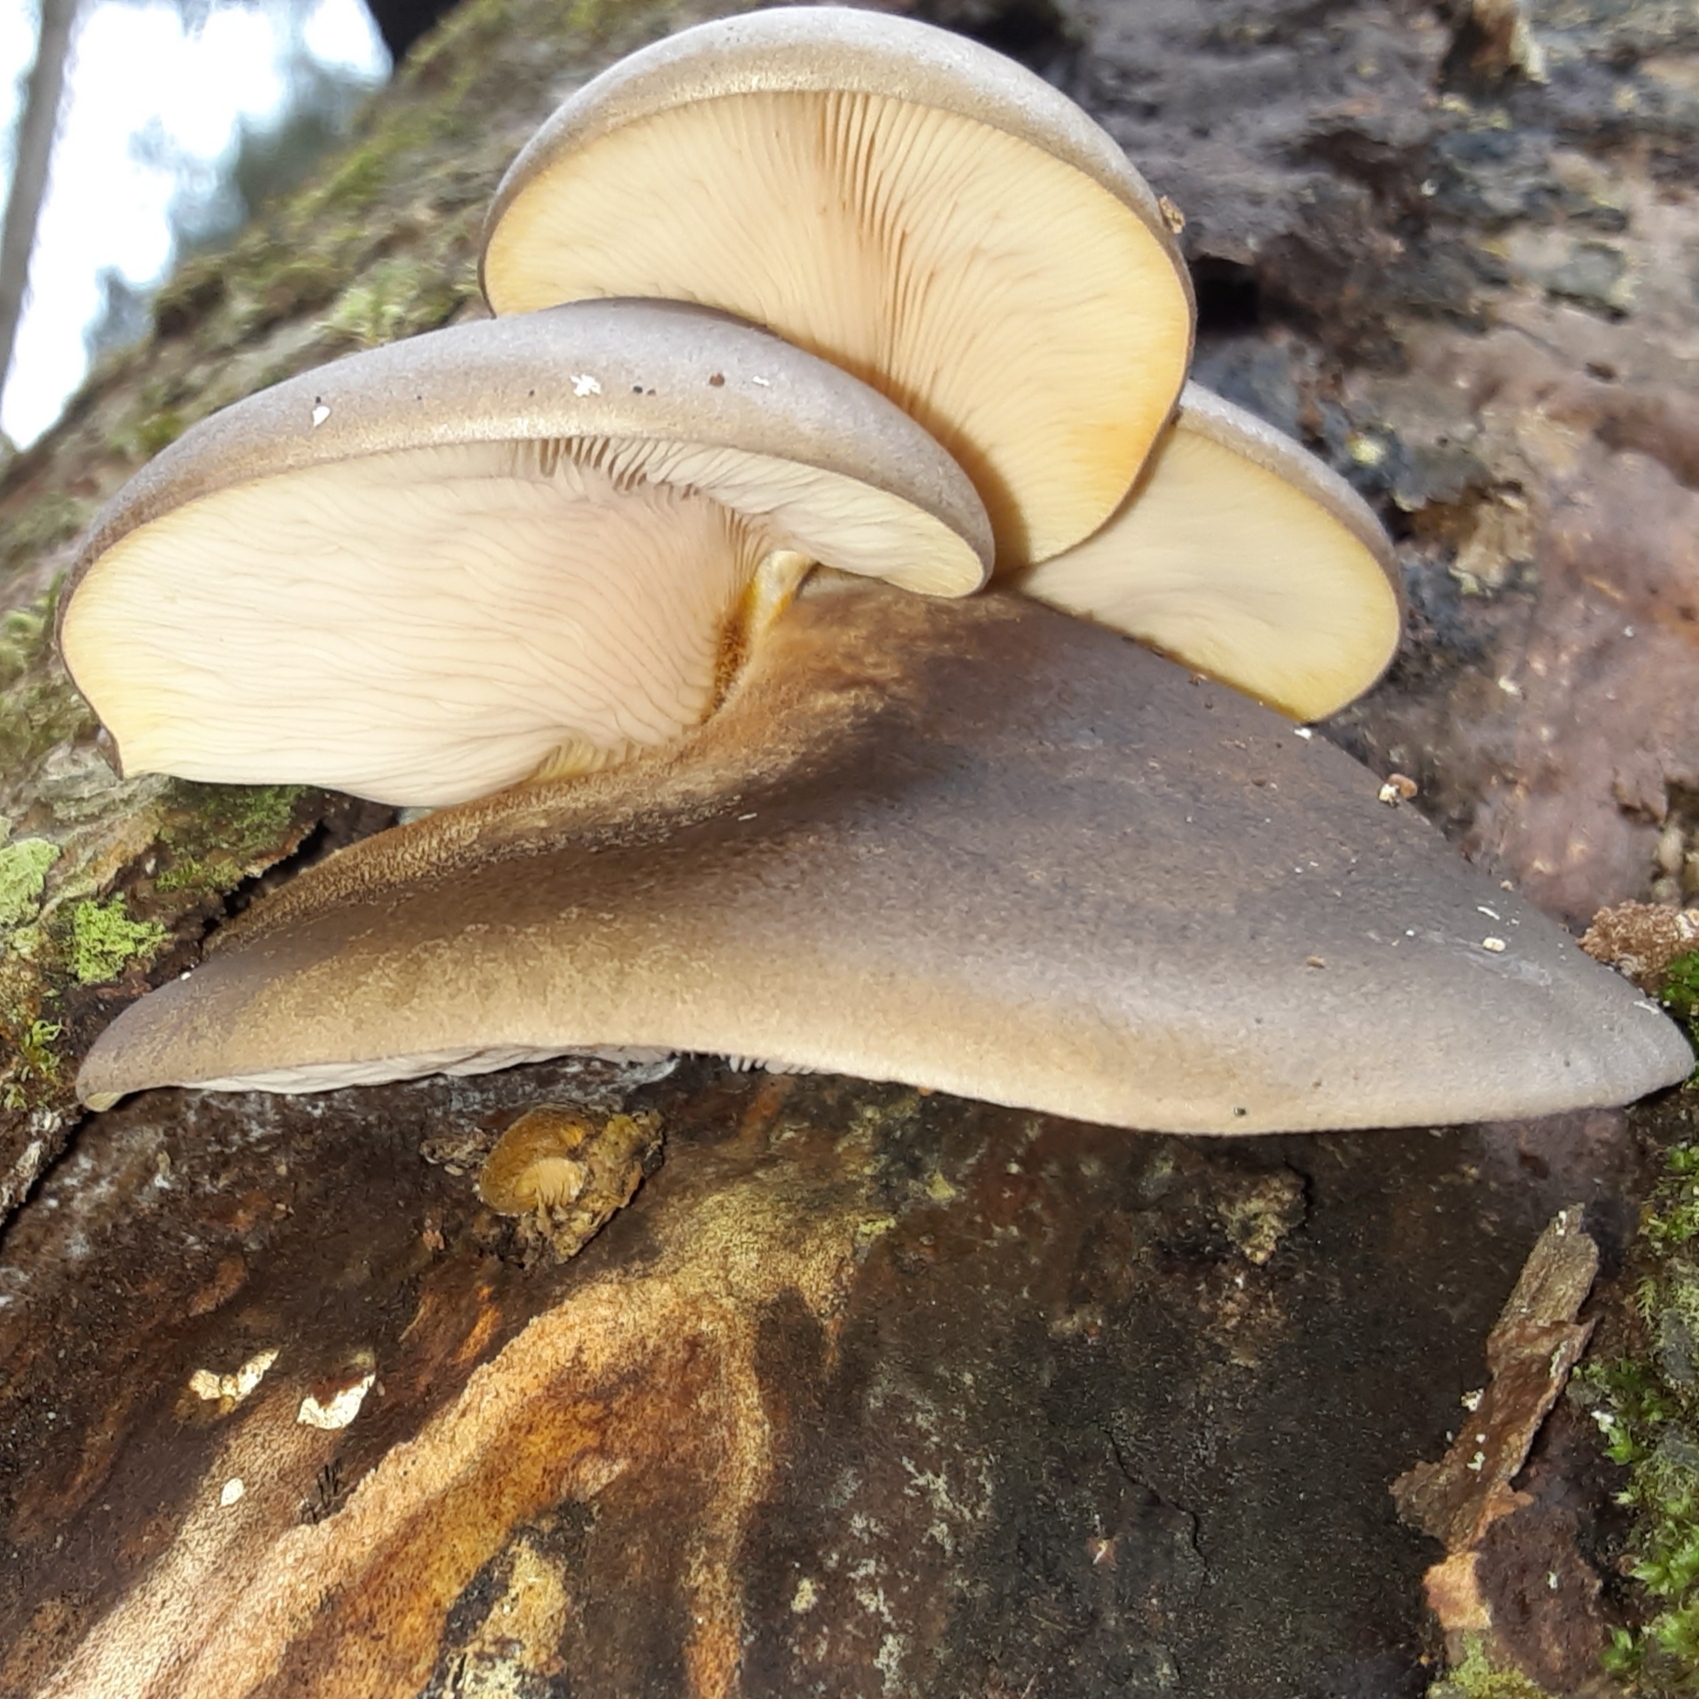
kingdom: Fungi
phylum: Basidiomycota
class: Agaricomycetes
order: Agaricales
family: Sarcomyxaceae
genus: Sarcomyxa
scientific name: Sarcomyxa serotina
